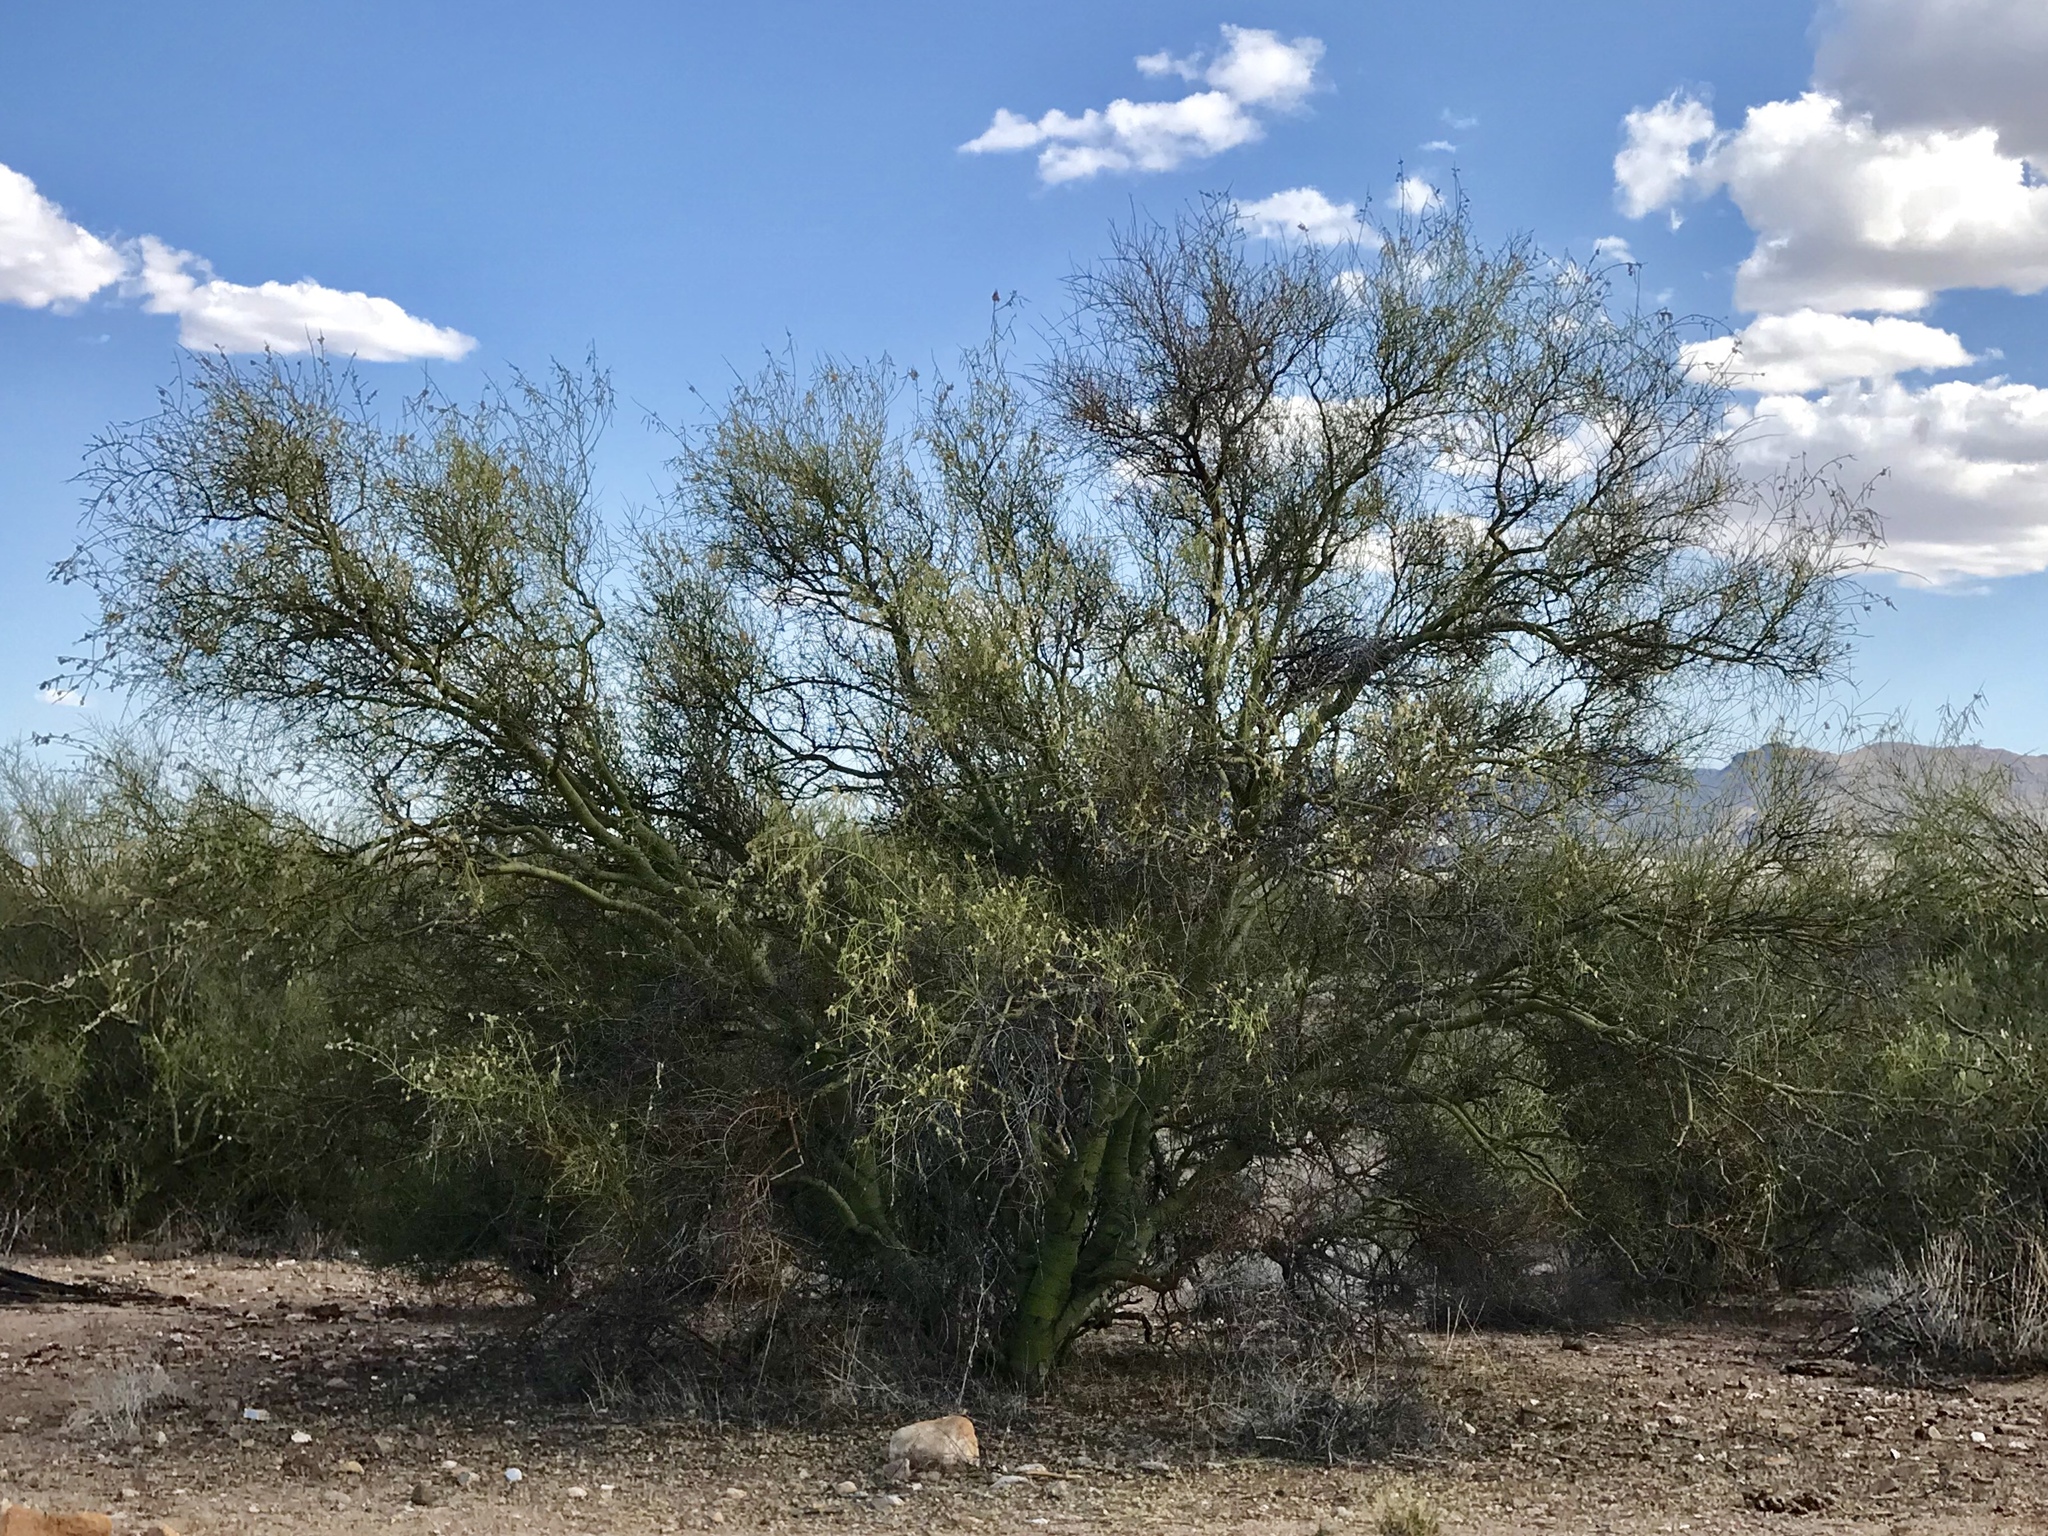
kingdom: Plantae
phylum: Tracheophyta
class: Magnoliopsida
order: Fabales
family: Fabaceae
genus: Parkinsonia
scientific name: Parkinsonia microphylla
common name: Yellow paloverde
